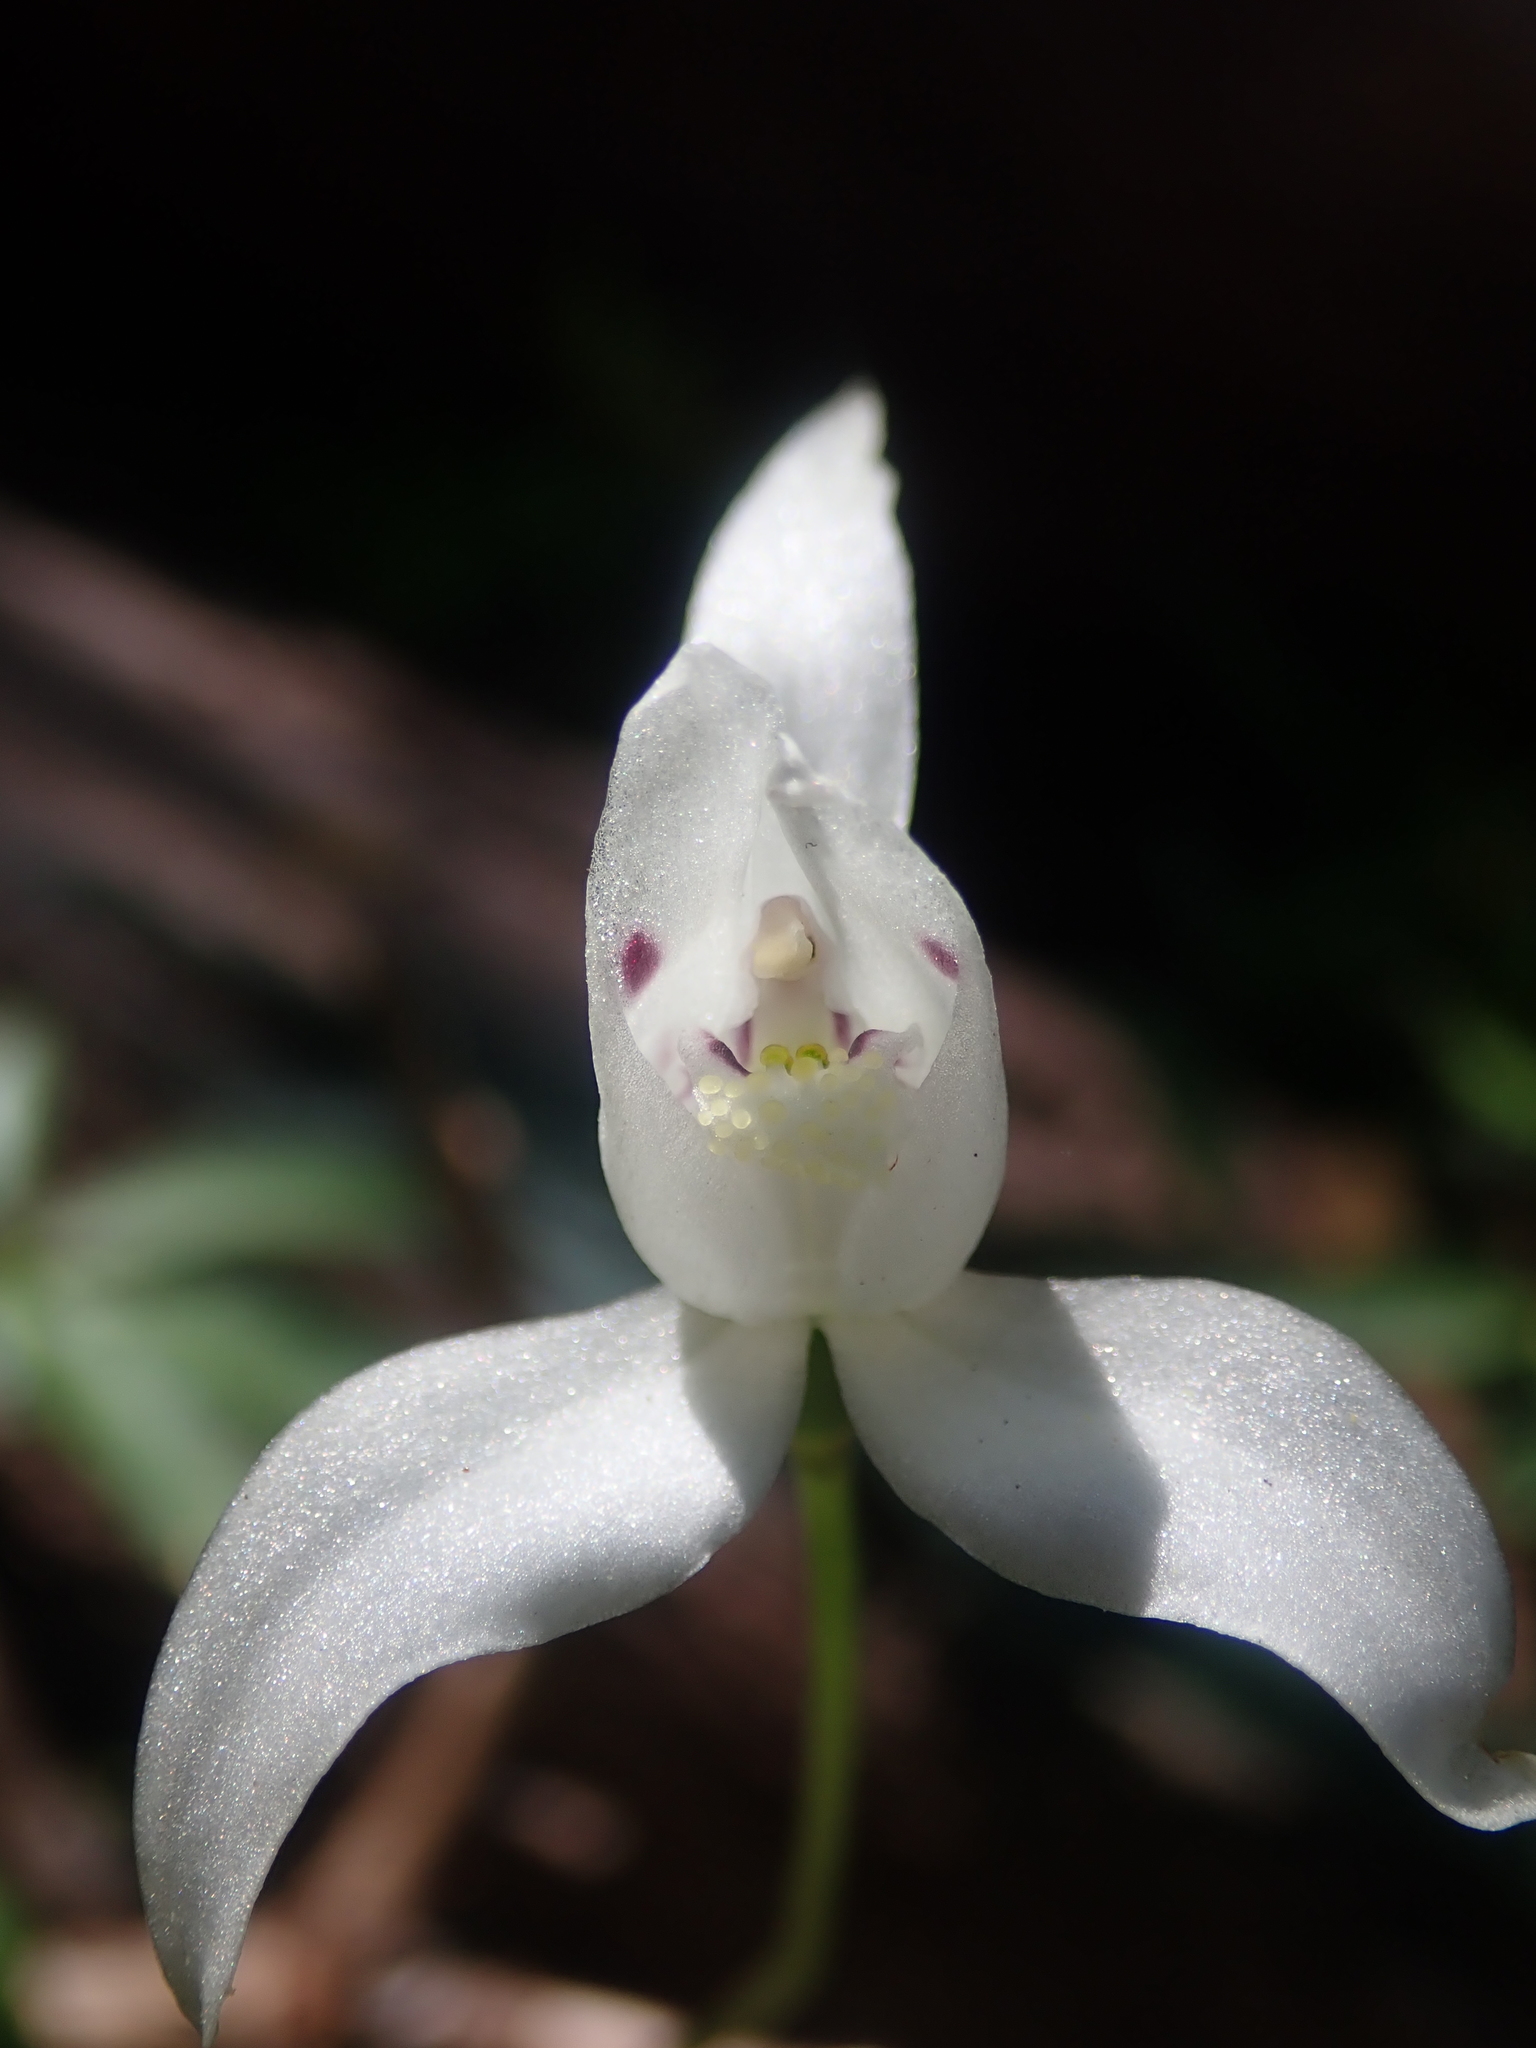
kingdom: Plantae
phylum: Tracheophyta
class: Liliopsida
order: Asparagales
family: Orchidaceae
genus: Codonorchis
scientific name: Codonorchis lessonii
